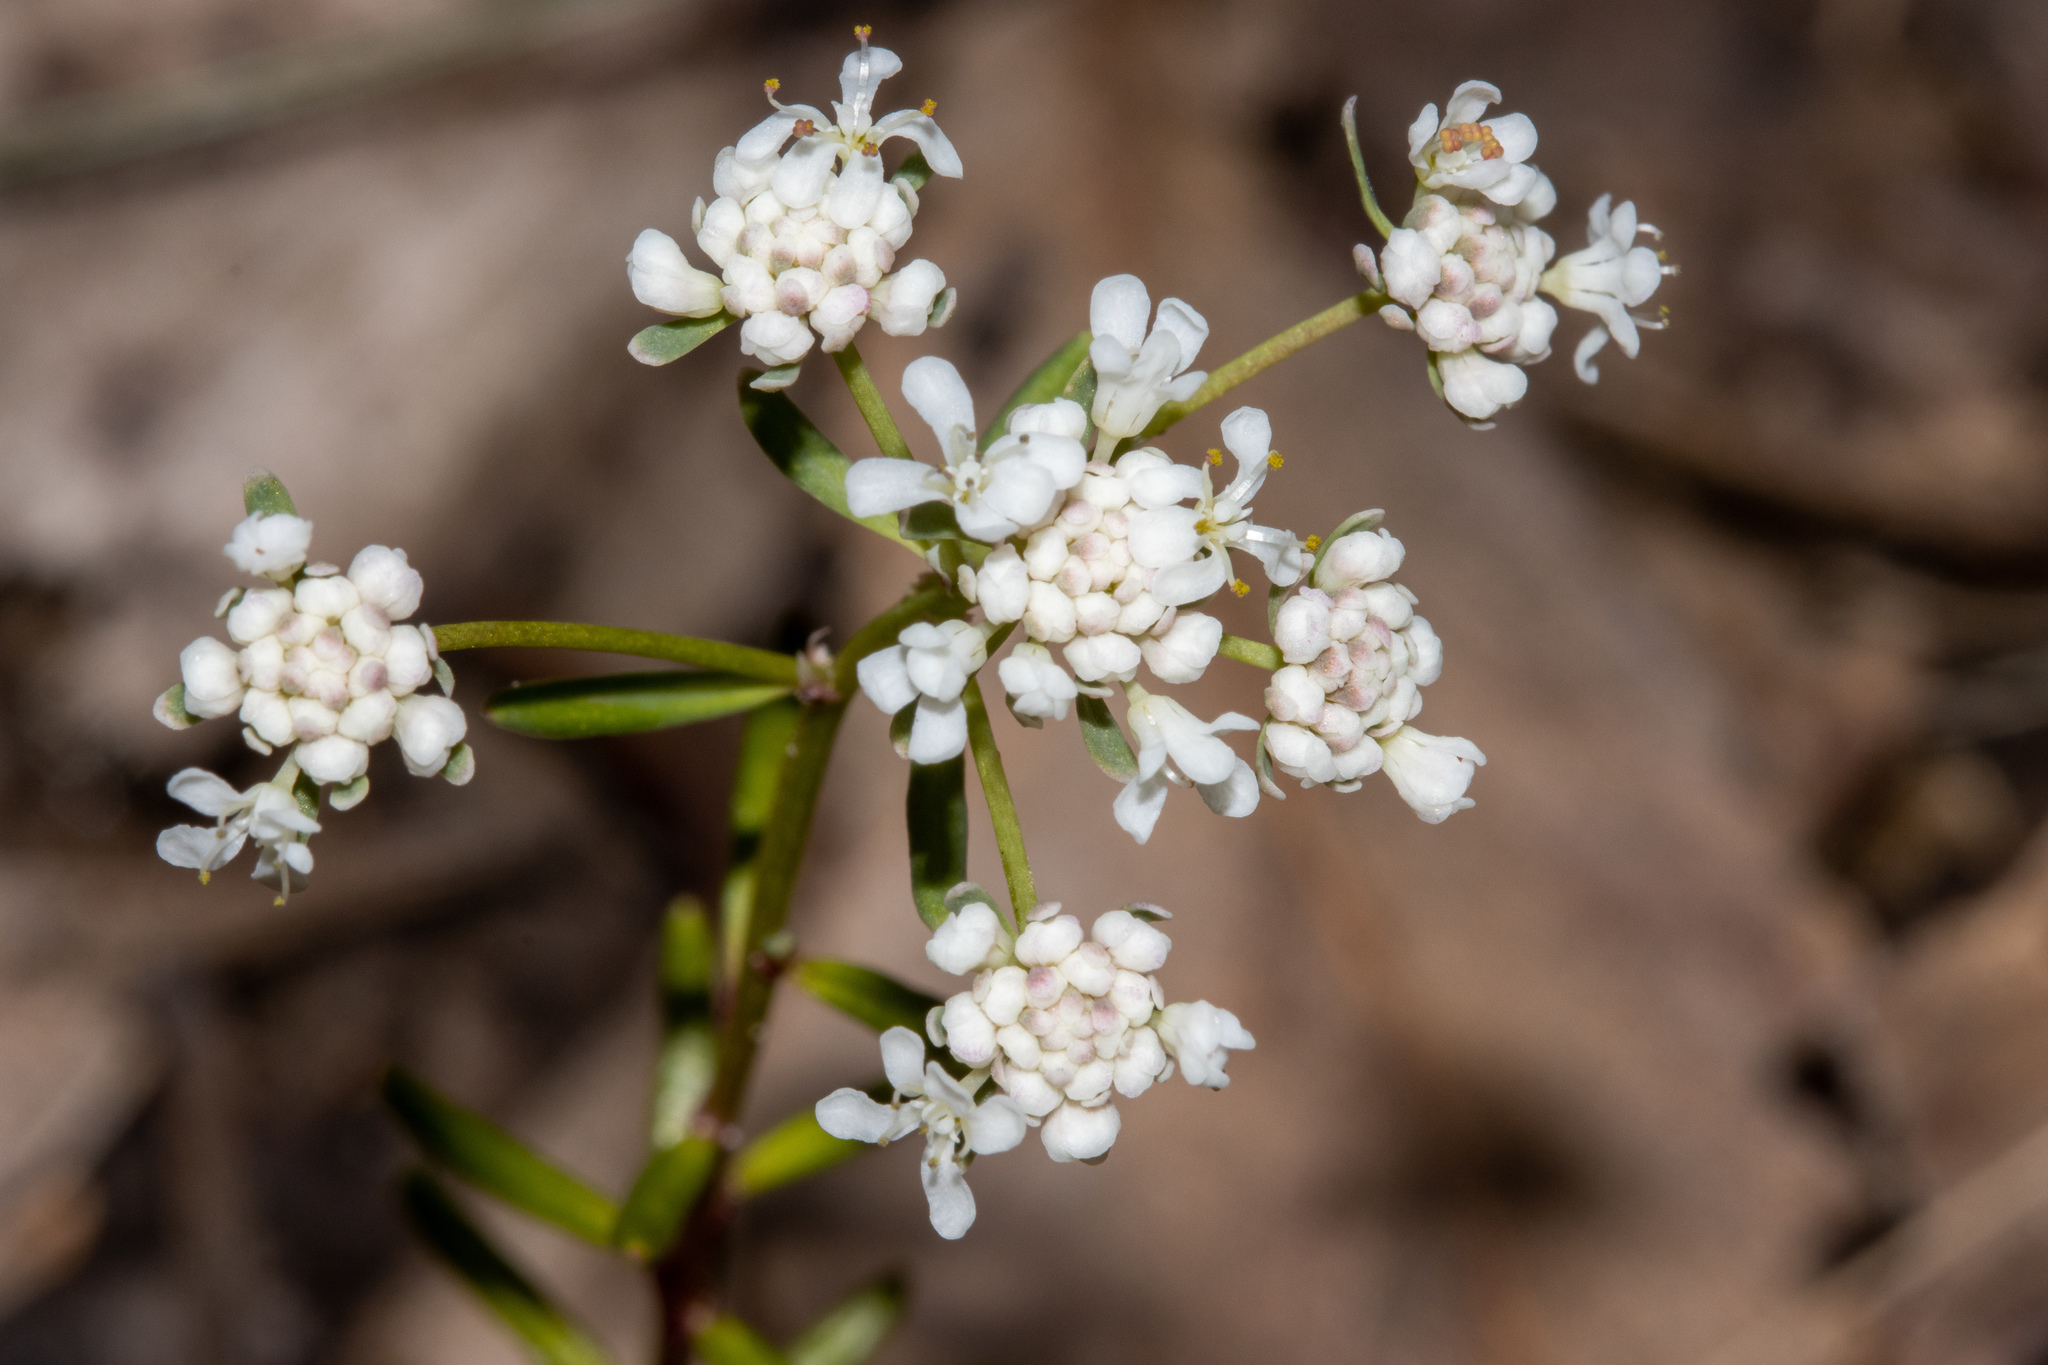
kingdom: Plantae
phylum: Tracheophyta
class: Magnoliopsida
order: Malpighiales
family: Phyllanthaceae
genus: Poranthera
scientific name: Poranthera huegelii
